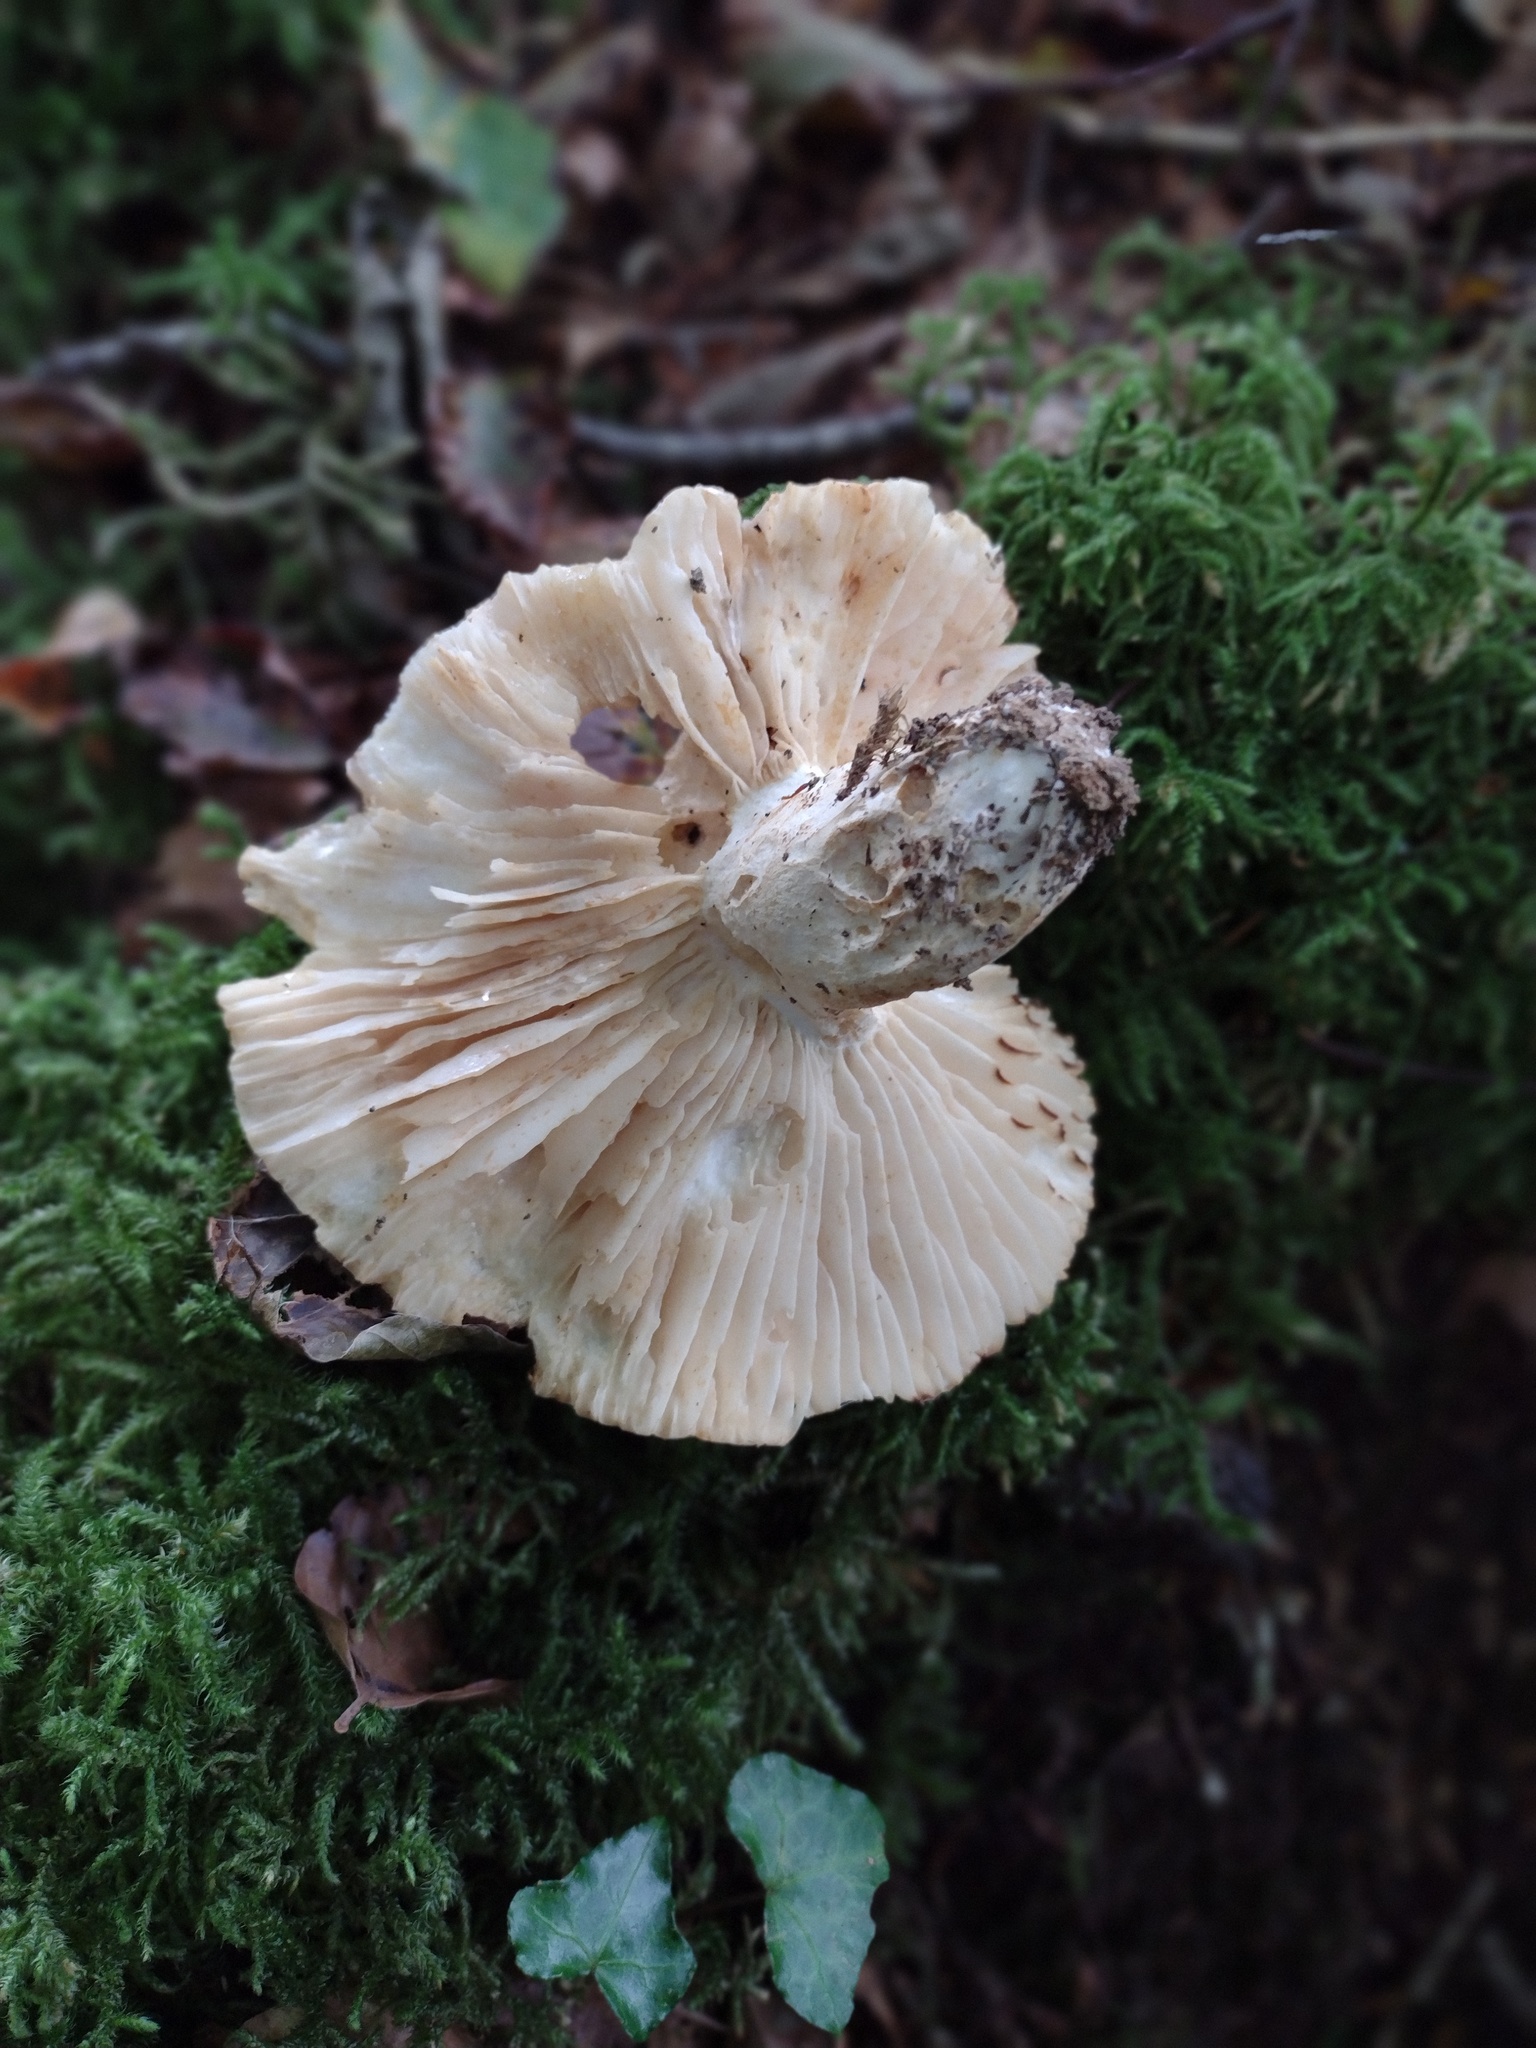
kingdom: Fungi
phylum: Basidiomycota
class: Agaricomycetes
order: Russulales
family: Russulaceae
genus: Russula
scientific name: Russula camarophylla
